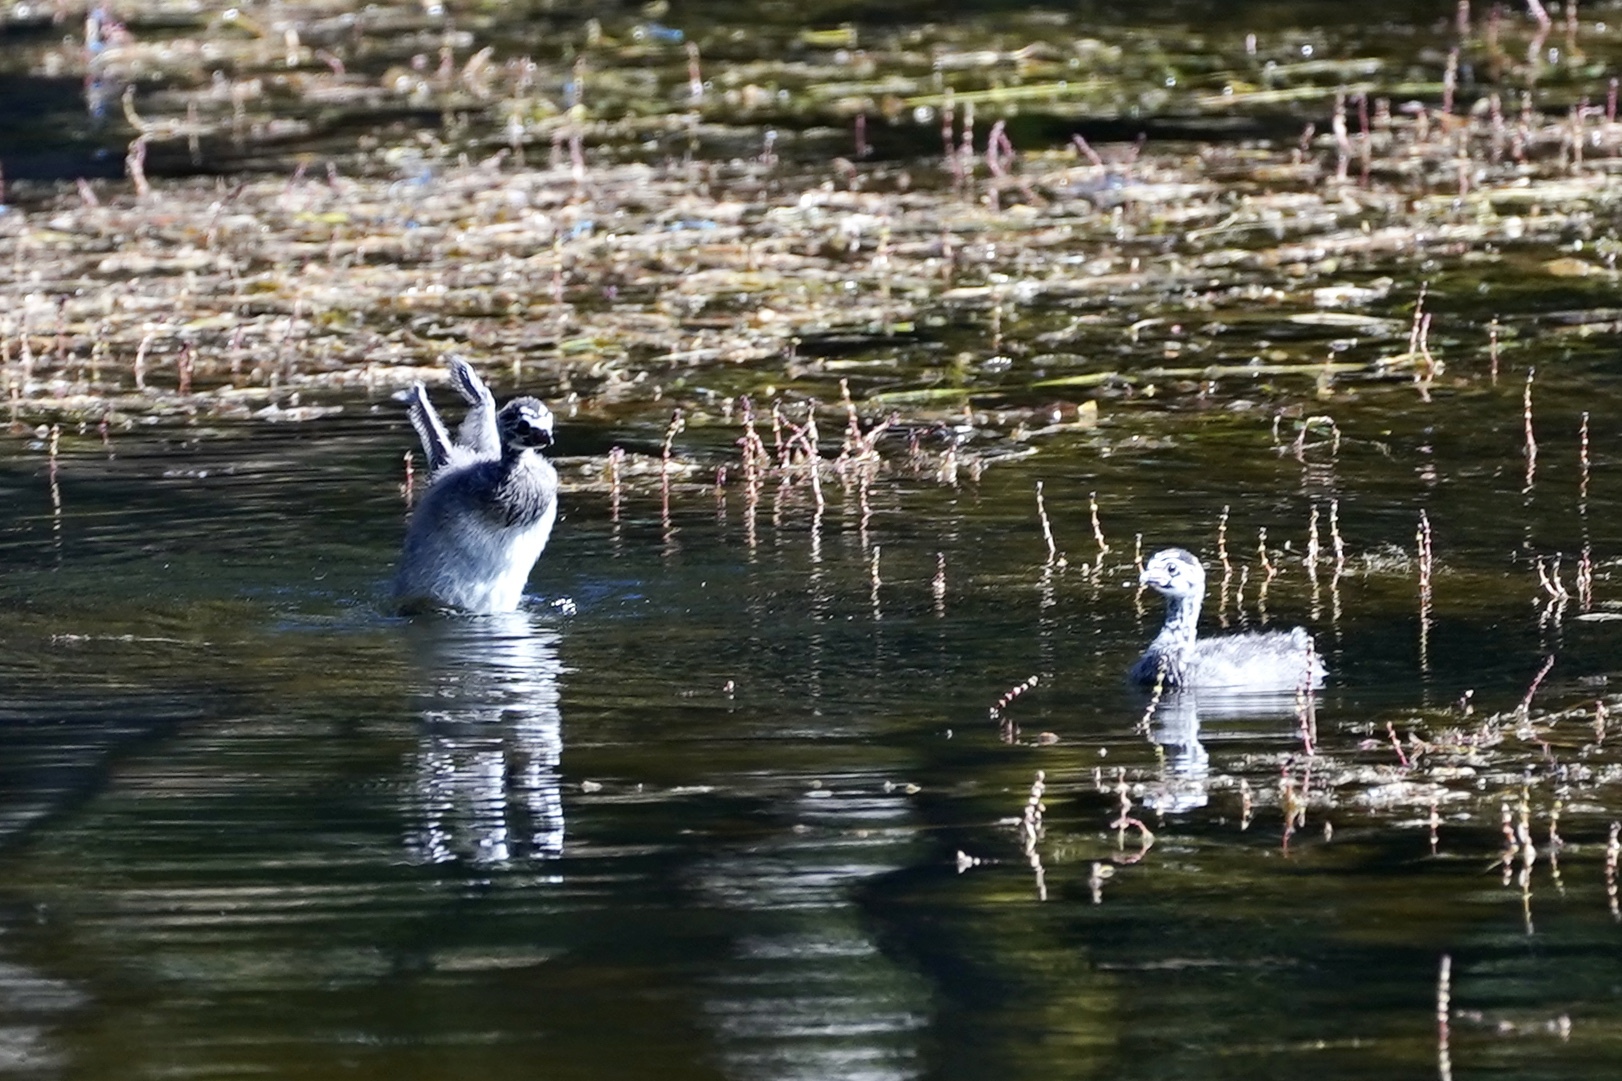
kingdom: Animalia
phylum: Chordata
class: Aves
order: Podicipediformes
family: Podicipedidae
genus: Podilymbus
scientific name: Podilymbus podiceps
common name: Pied-billed grebe
